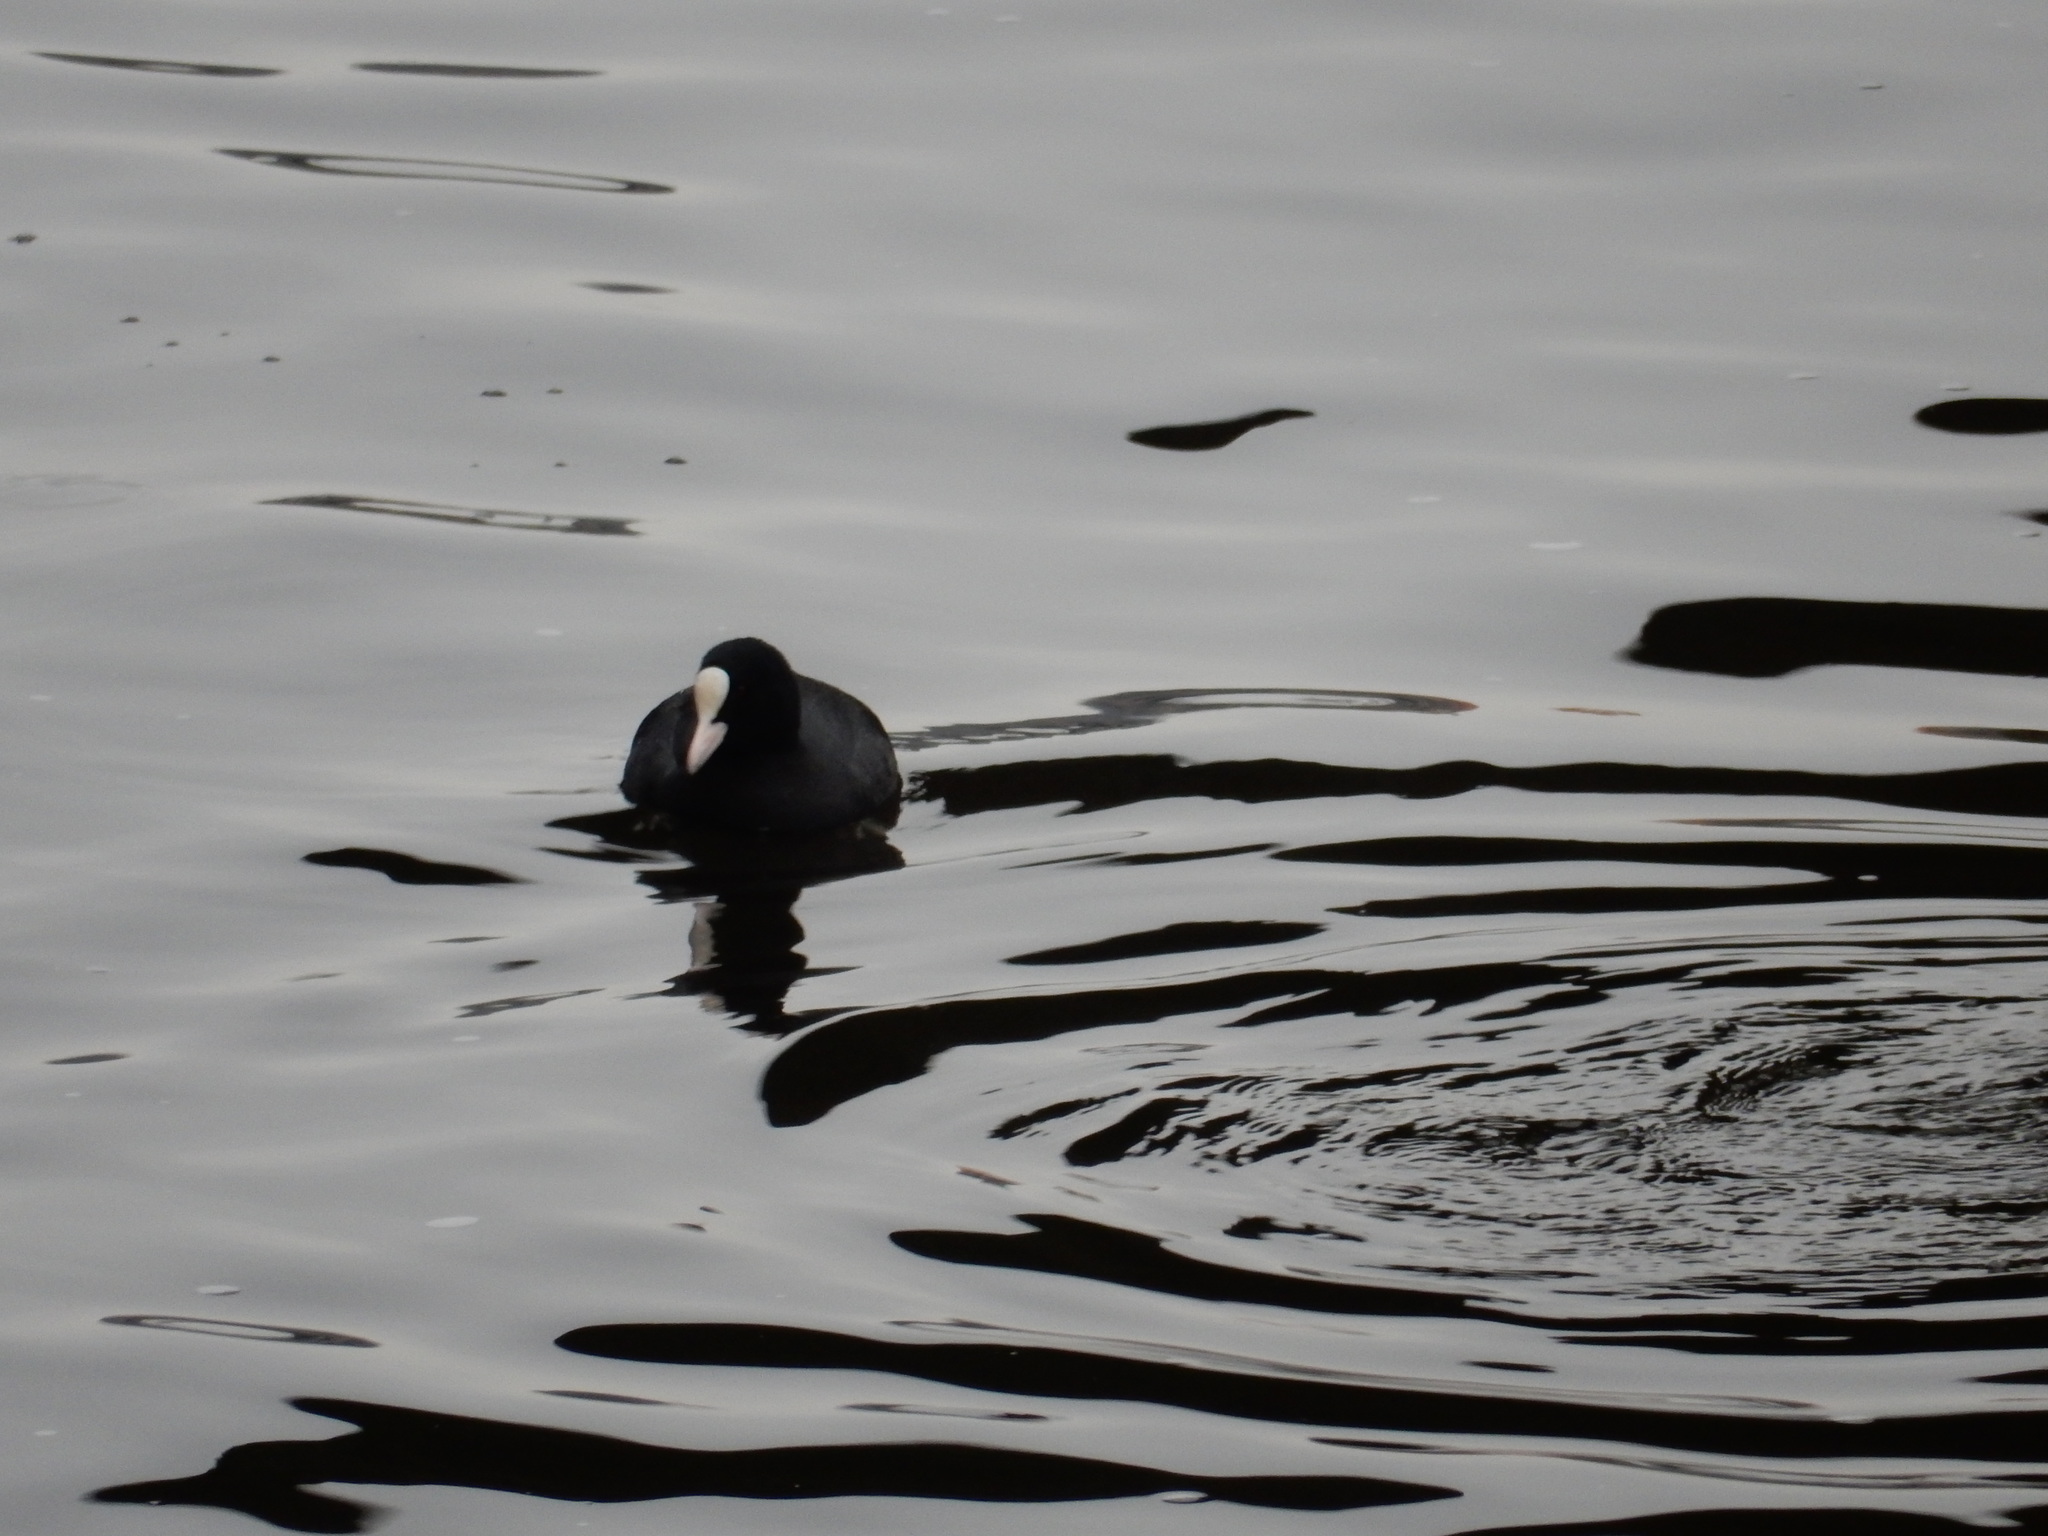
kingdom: Animalia
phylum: Chordata
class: Aves
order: Gruiformes
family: Rallidae
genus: Fulica
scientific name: Fulica atra
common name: Eurasian coot
